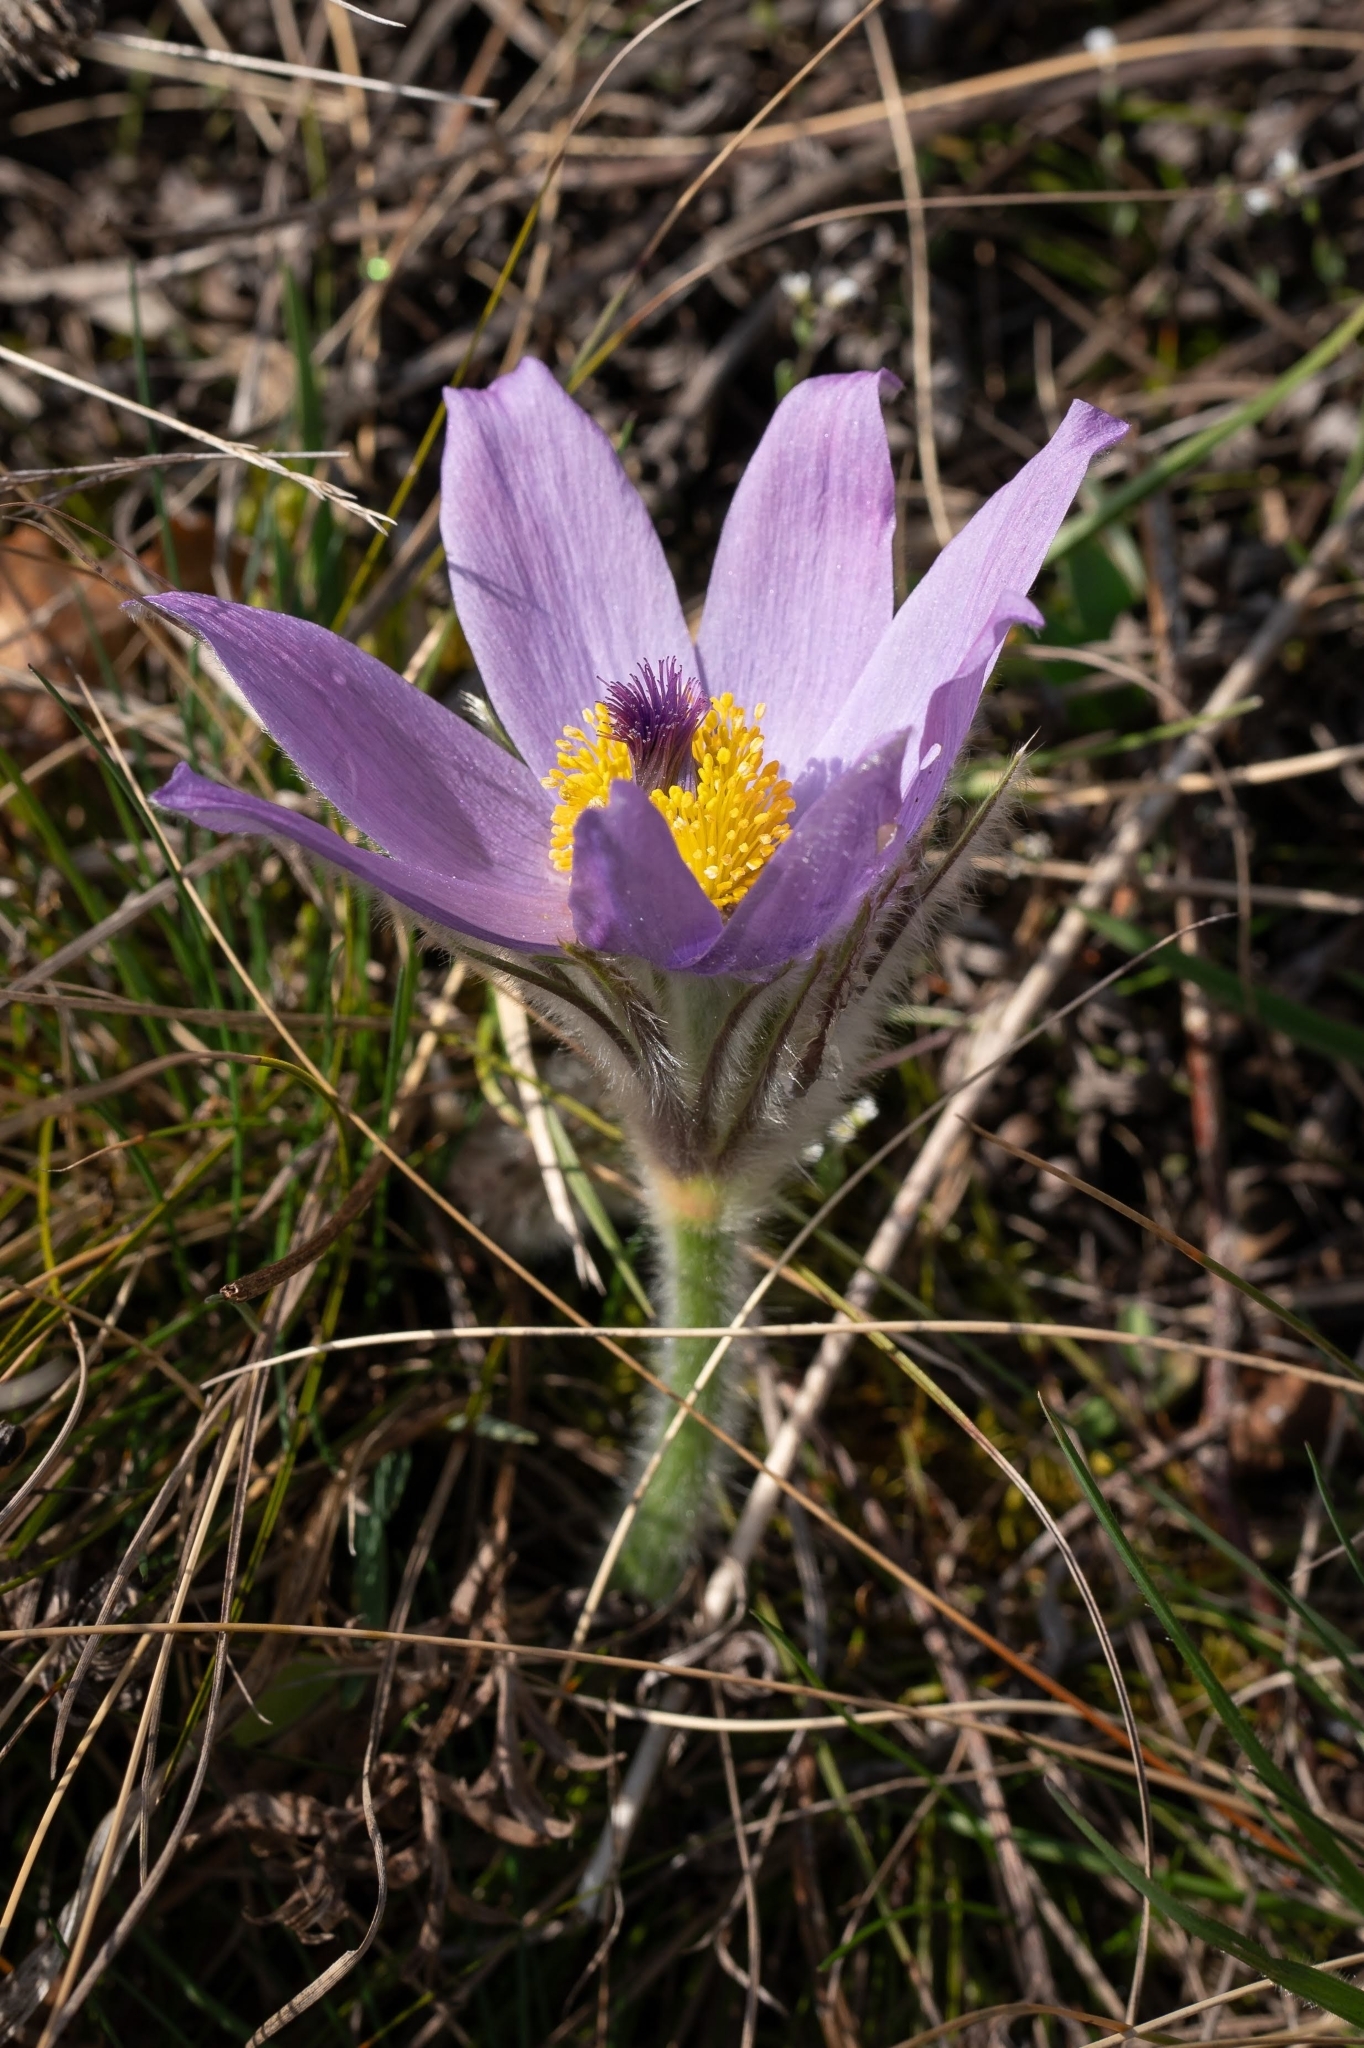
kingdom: Plantae
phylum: Tracheophyta
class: Magnoliopsida
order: Ranunculales
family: Ranunculaceae
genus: Pulsatilla
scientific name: Pulsatilla grandis
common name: Greater pasque flower
